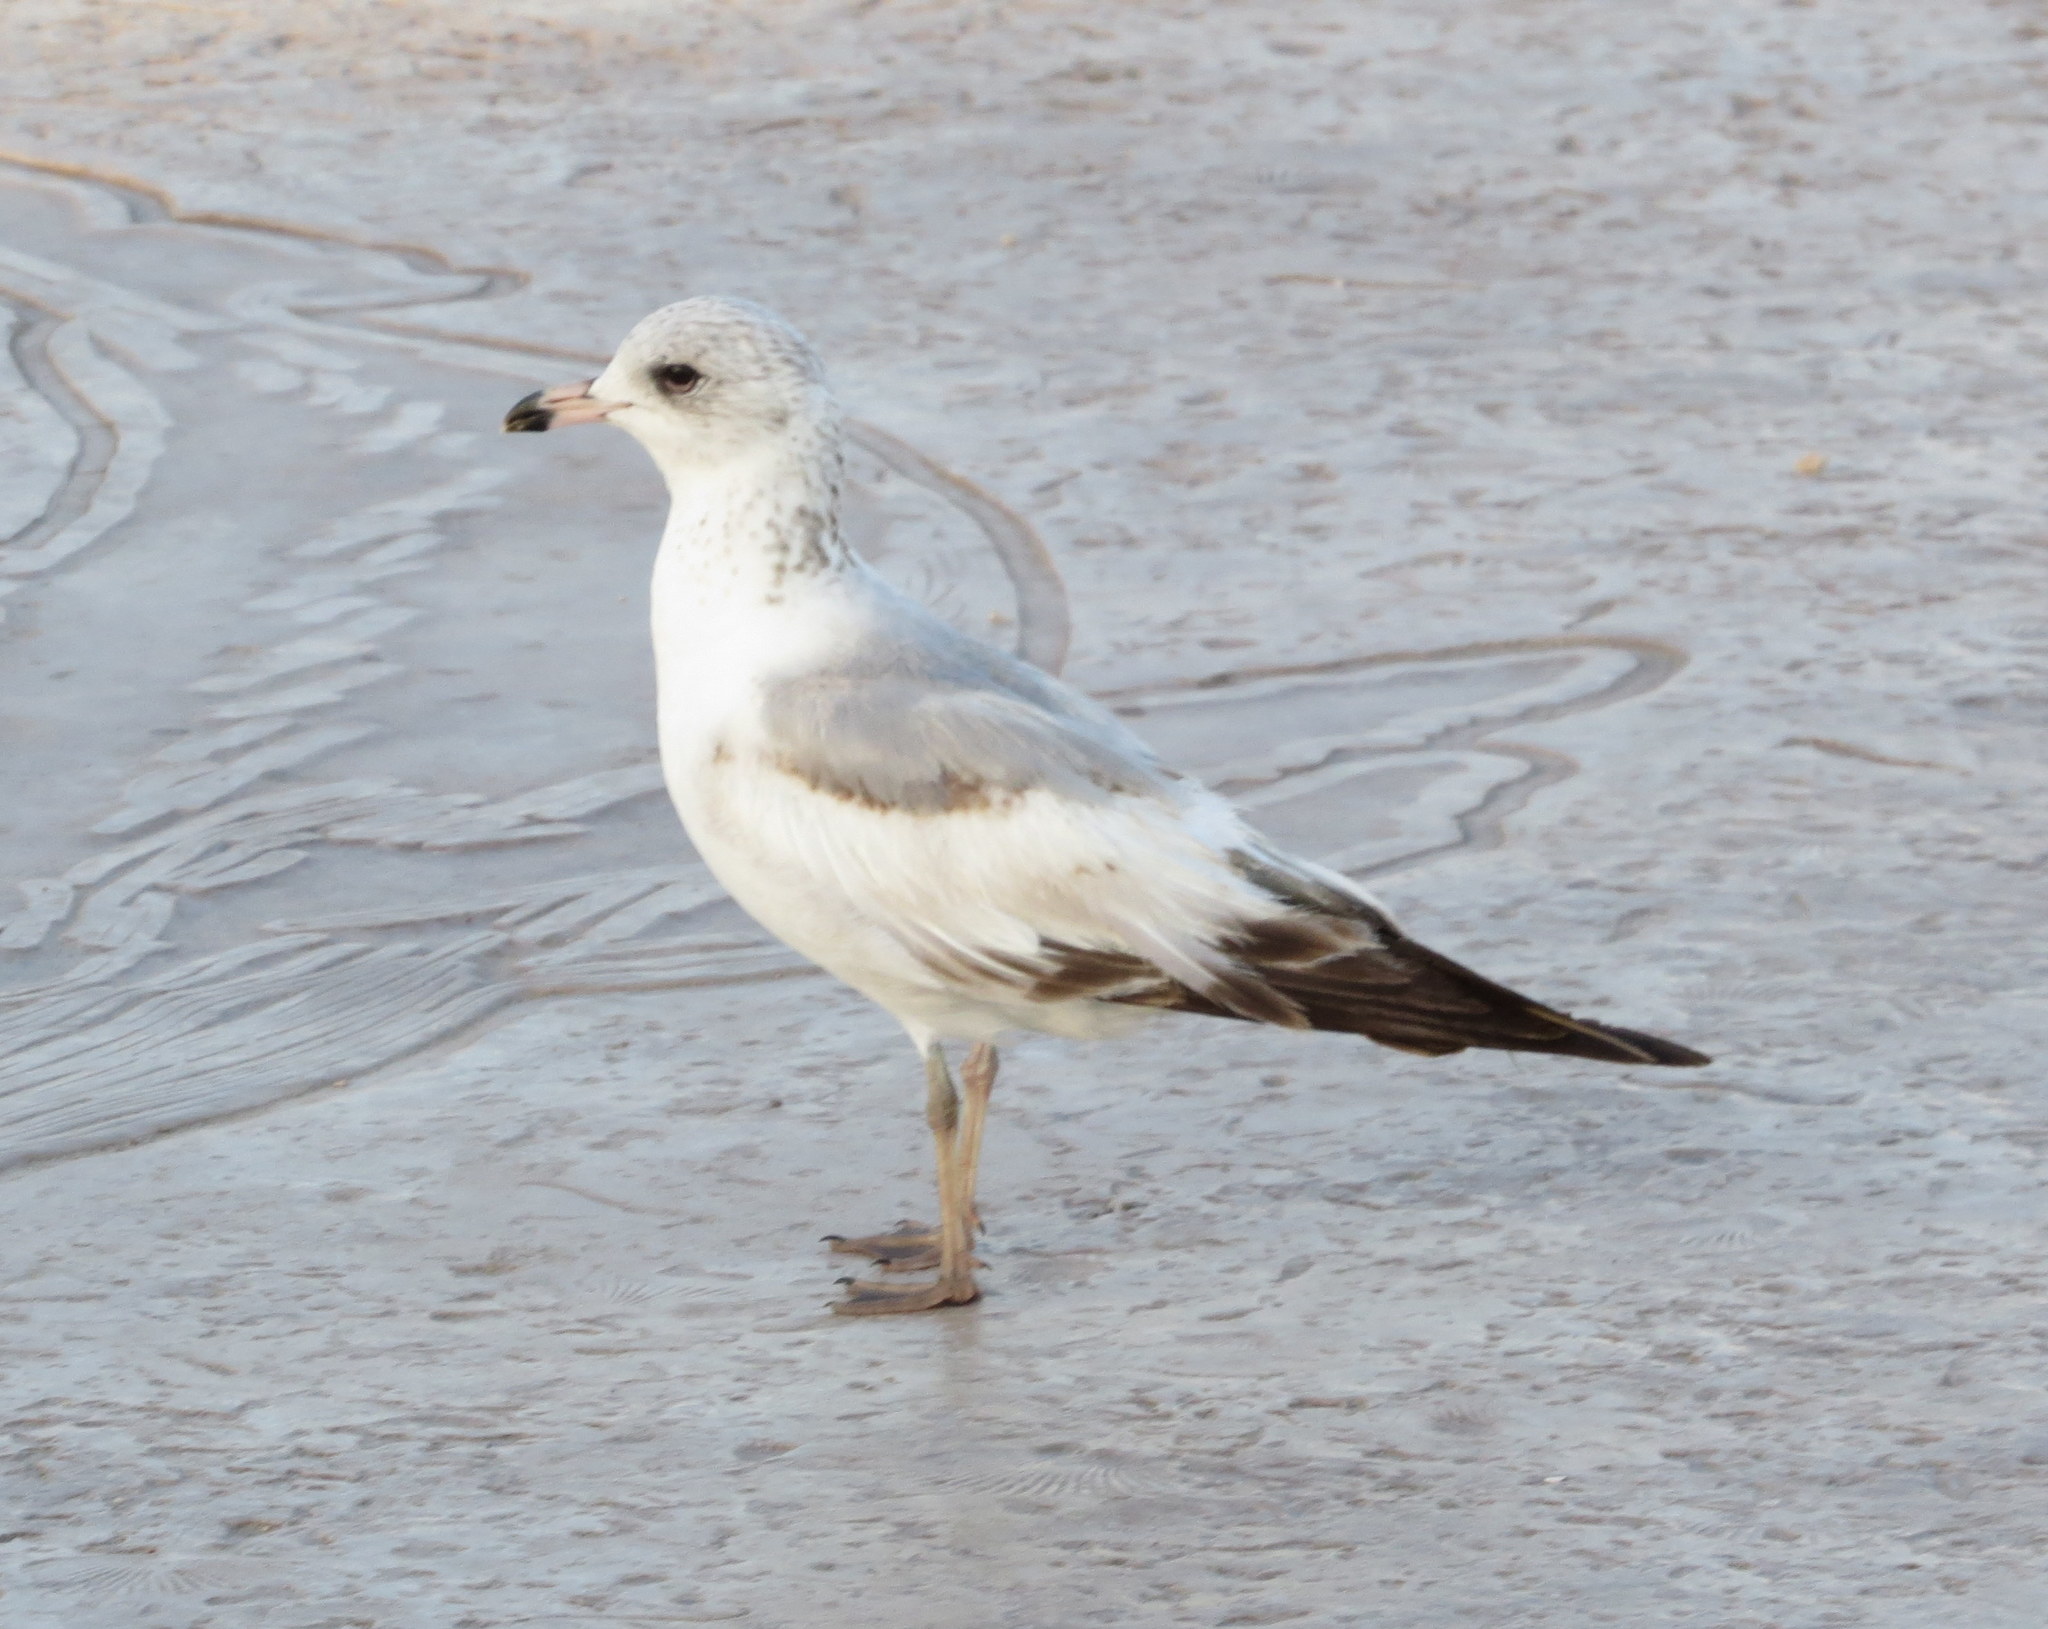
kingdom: Animalia
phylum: Chordata
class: Aves
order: Charadriiformes
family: Laridae
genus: Larus
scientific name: Larus delawarensis
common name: Ring-billed gull
